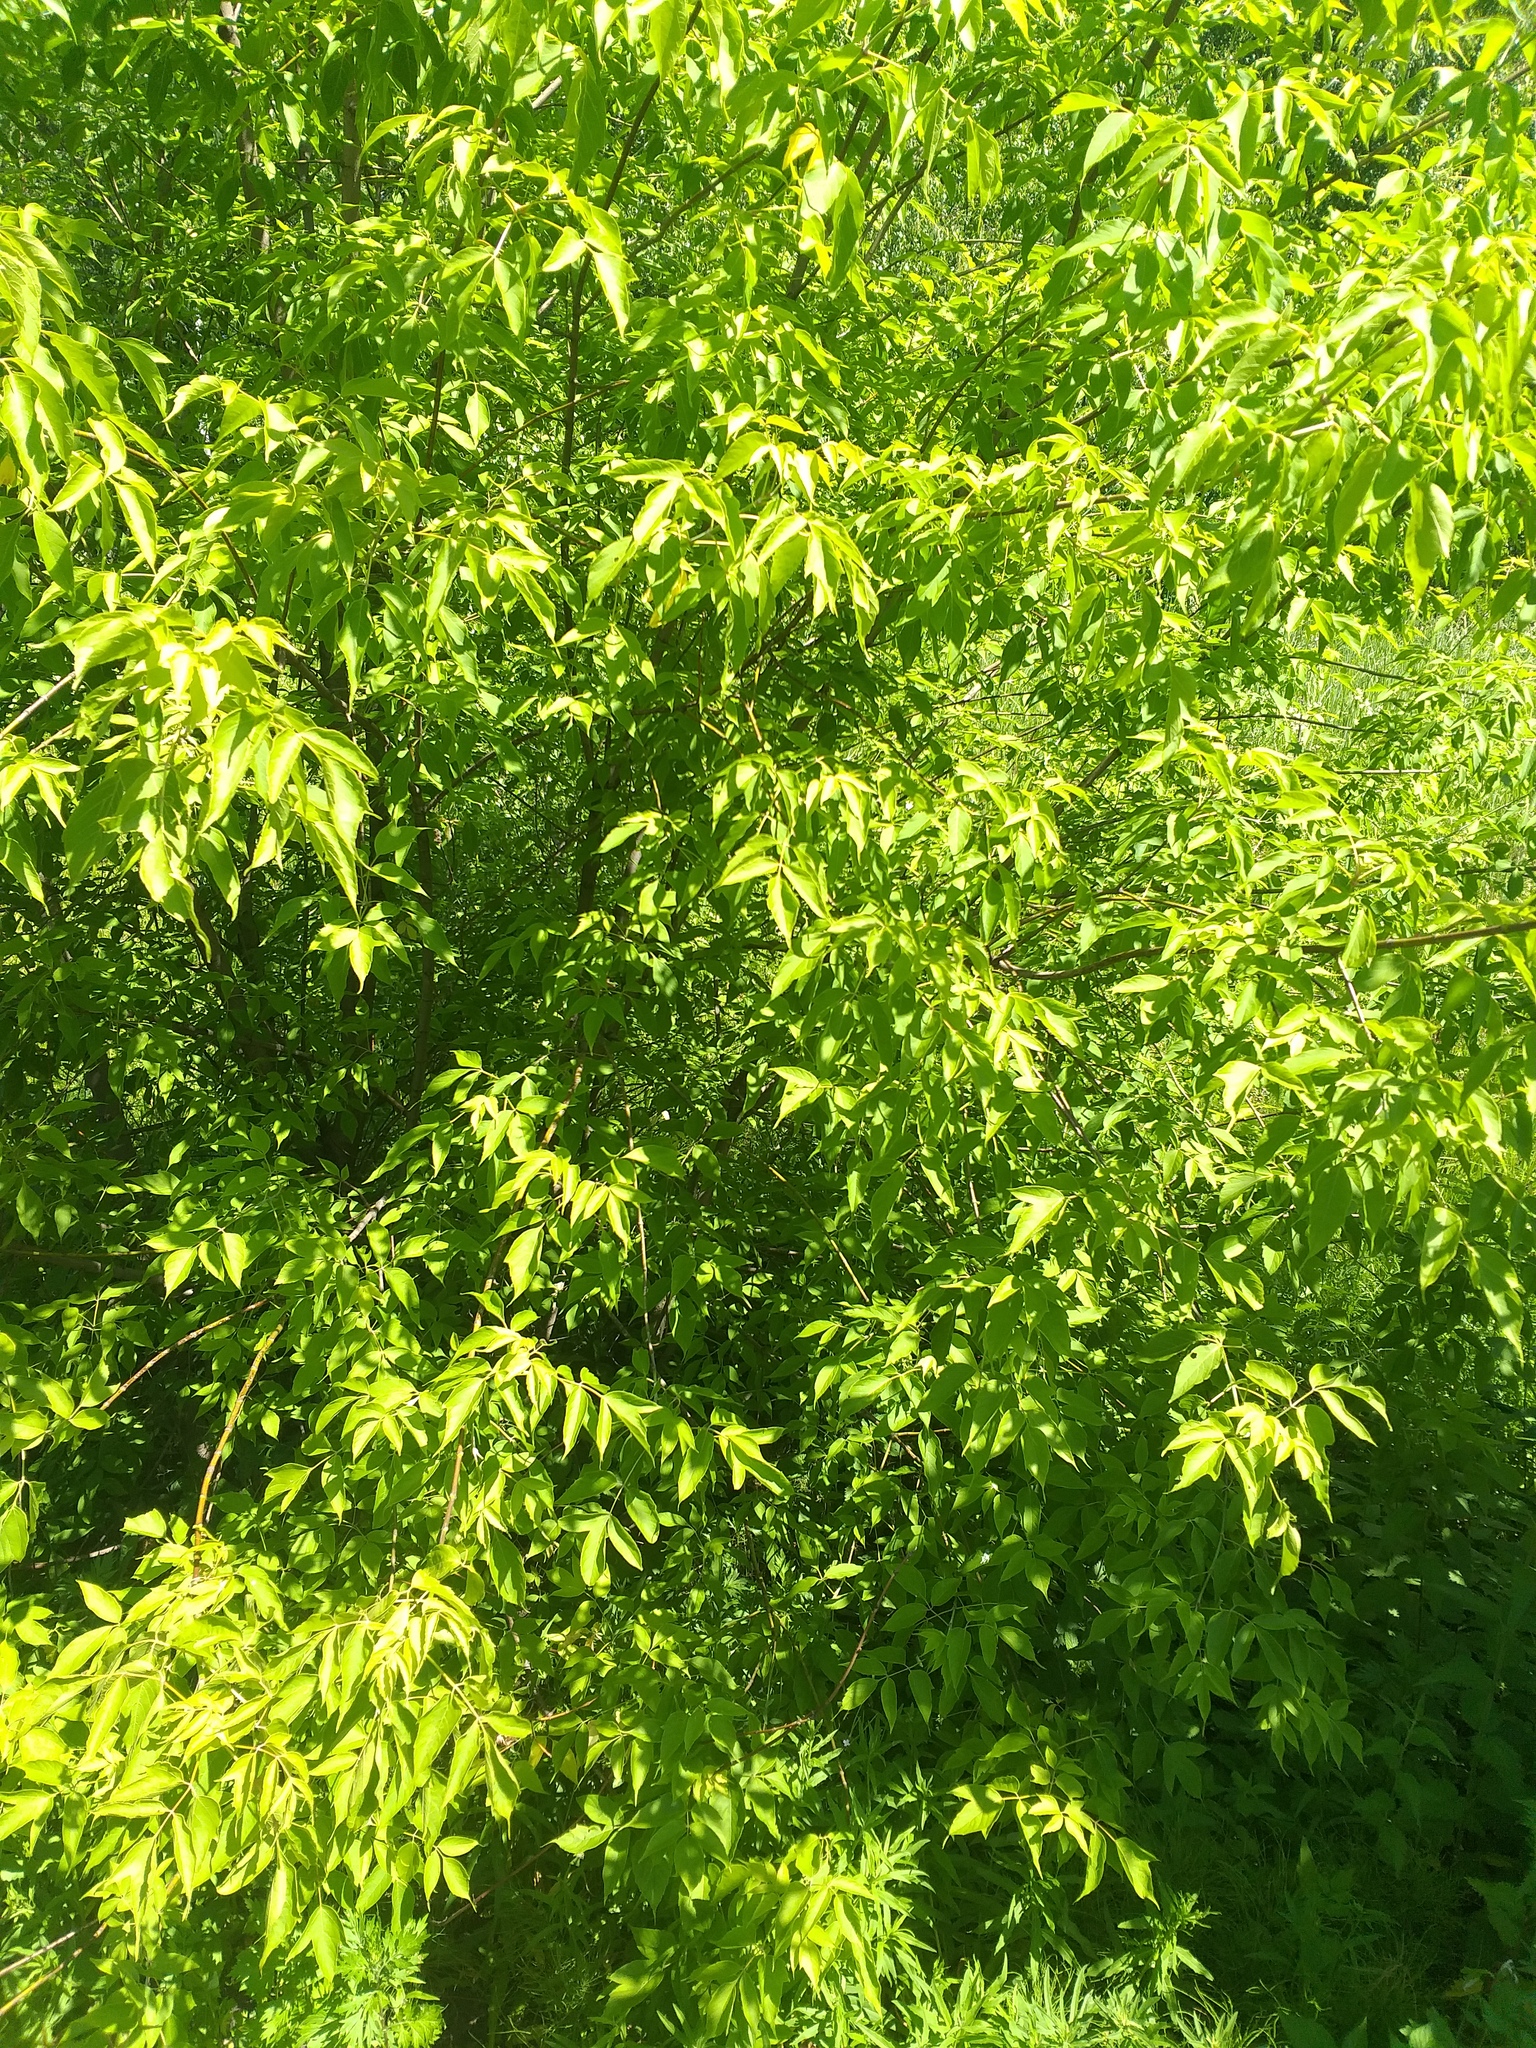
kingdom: Plantae
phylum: Tracheophyta
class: Magnoliopsida
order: Sapindales
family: Sapindaceae
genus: Acer
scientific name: Acer negundo
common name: Ashleaf maple
